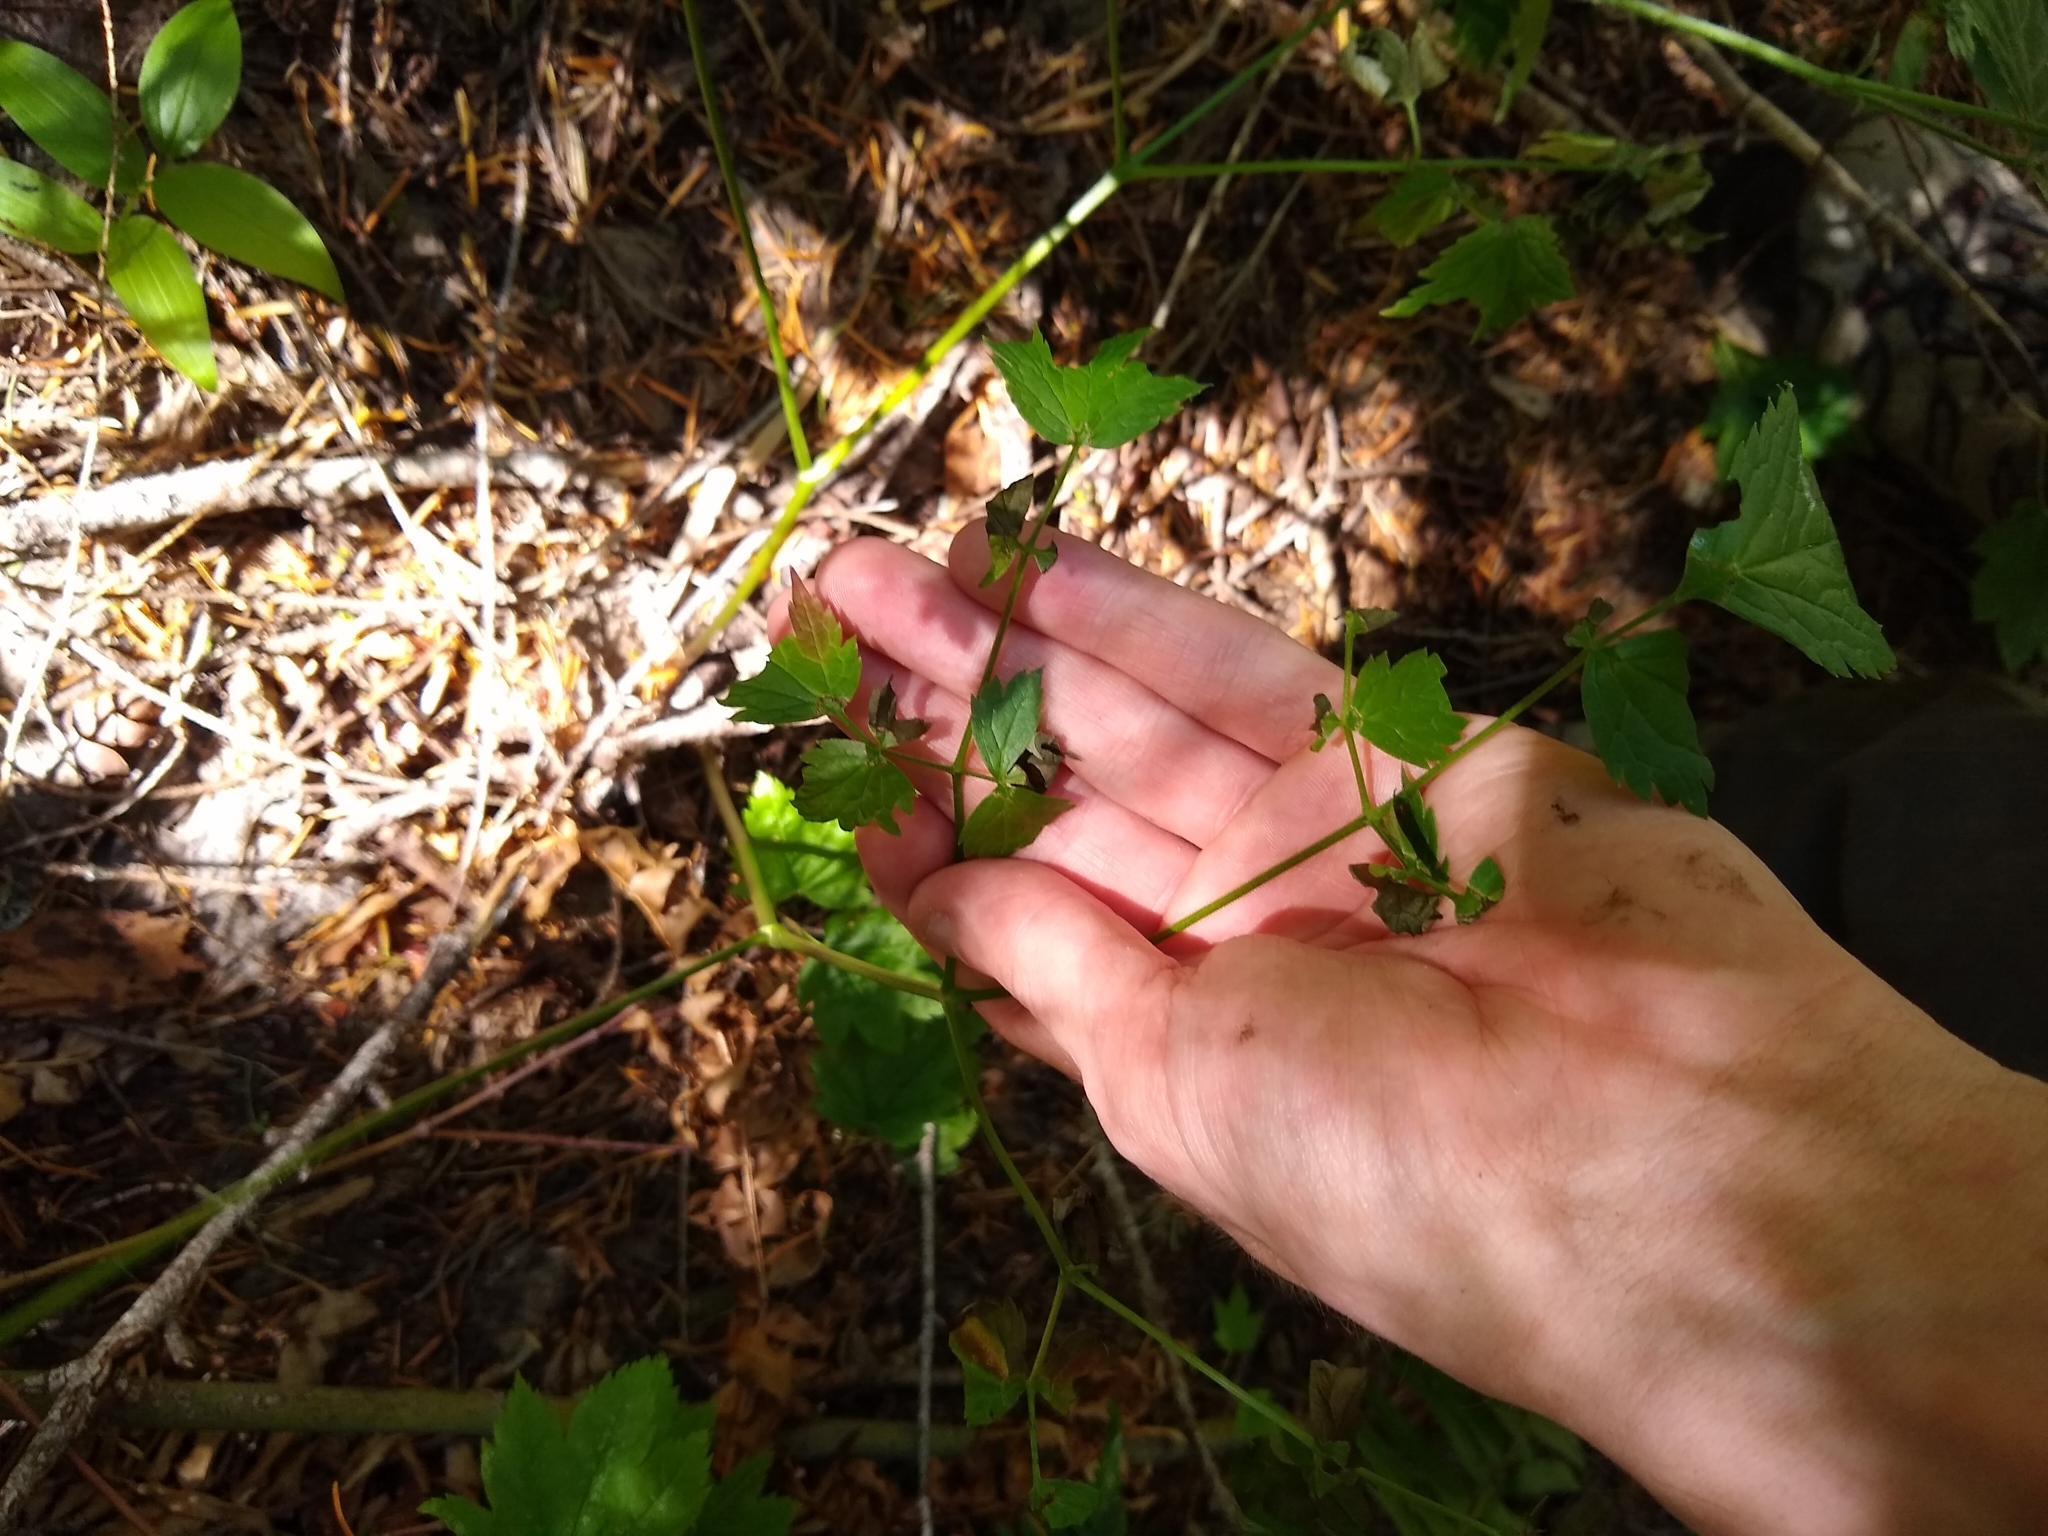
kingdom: Plantae
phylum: Tracheophyta
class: Magnoliopsida
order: Ranunculales
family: Ranunculaceae
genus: Actaea
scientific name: Actaea rubra
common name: Red baneberry
